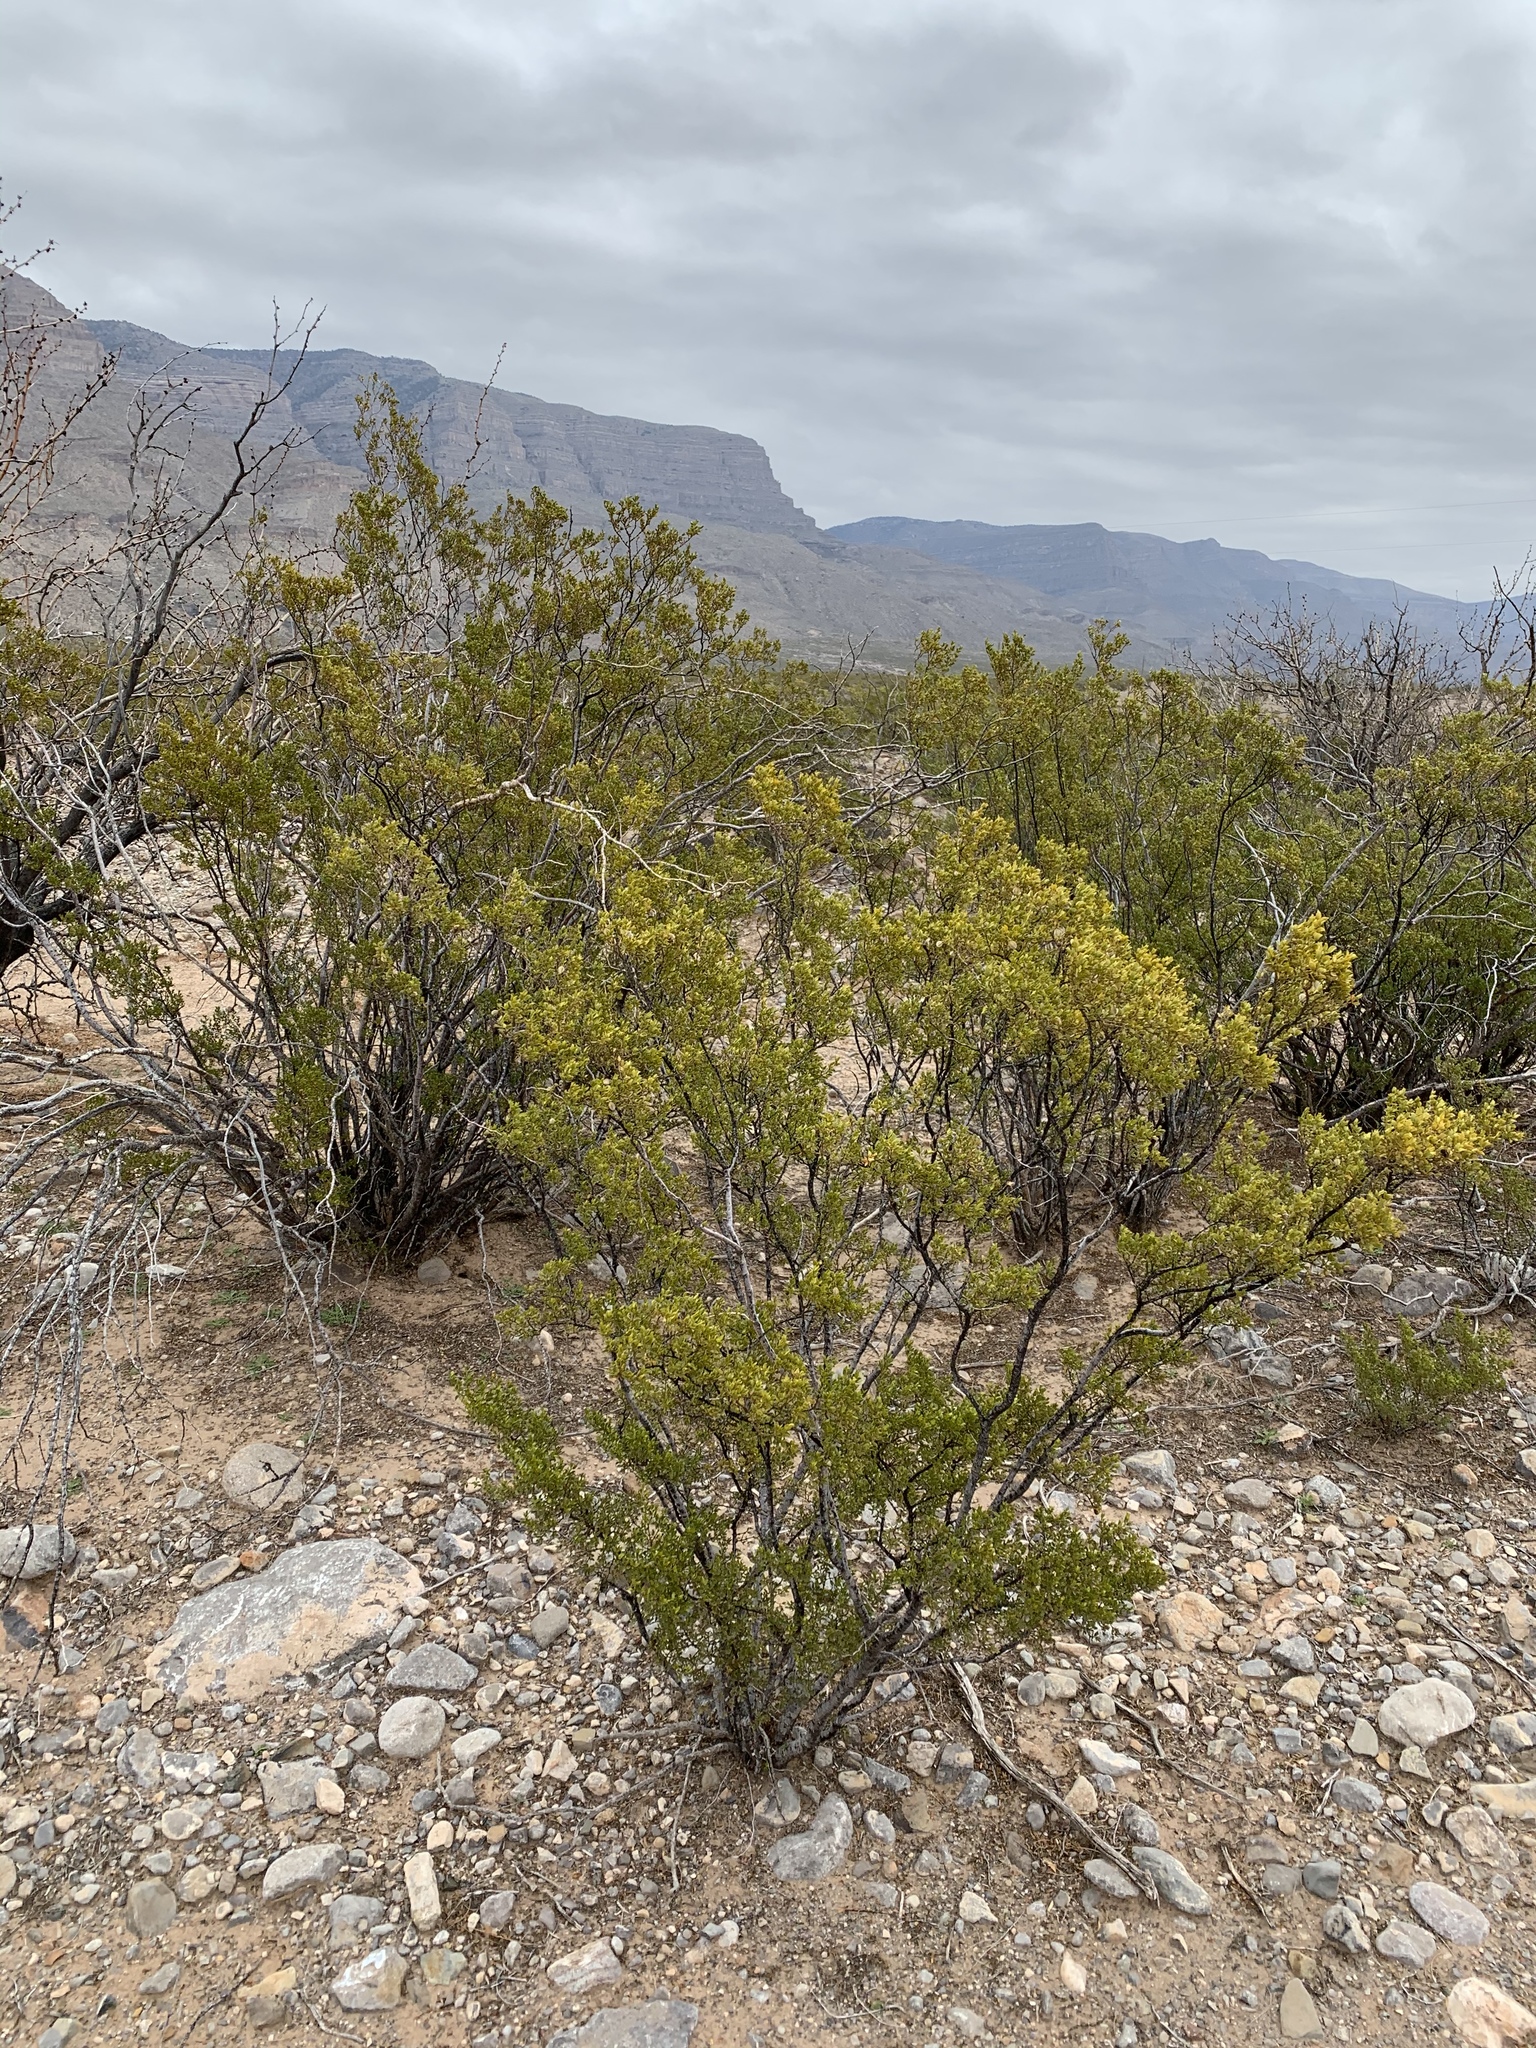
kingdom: Plantae
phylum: Tracheophyta
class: Magnoliopsida
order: Zygophyllales
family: Zygophyllaceae
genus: Larrea
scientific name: Larrea tridentata
